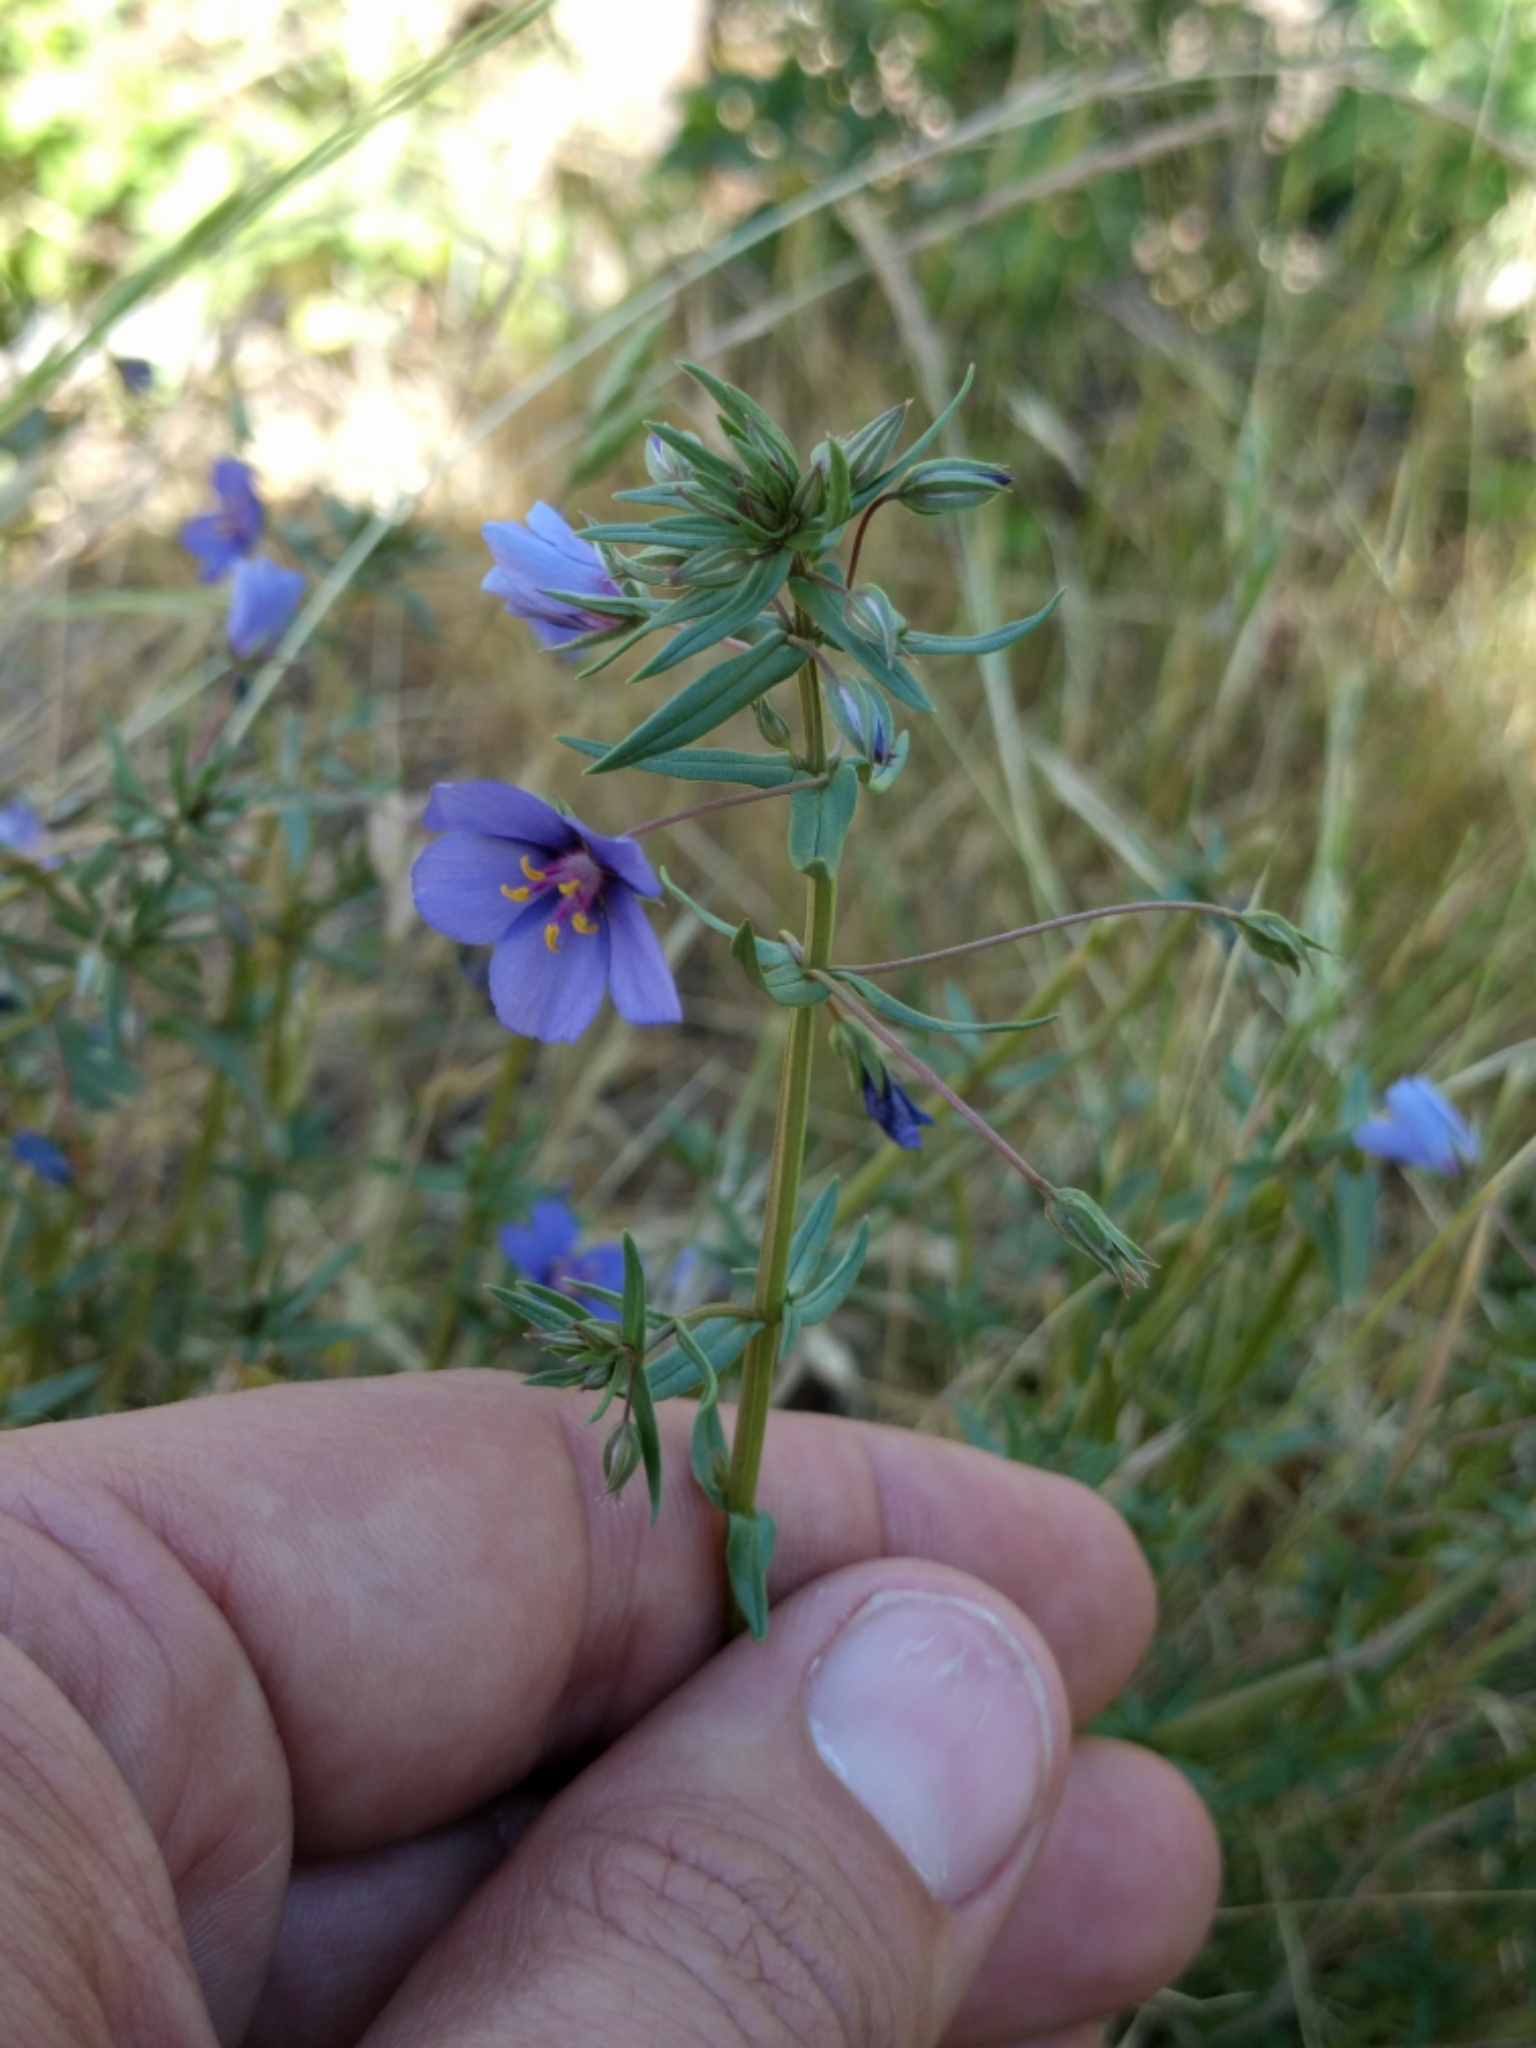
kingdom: Plantae
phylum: Tracheophyta
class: Magnoliopsida
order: Ericales
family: Primulaceae
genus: Lysimachia
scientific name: Lysimachia monelli
